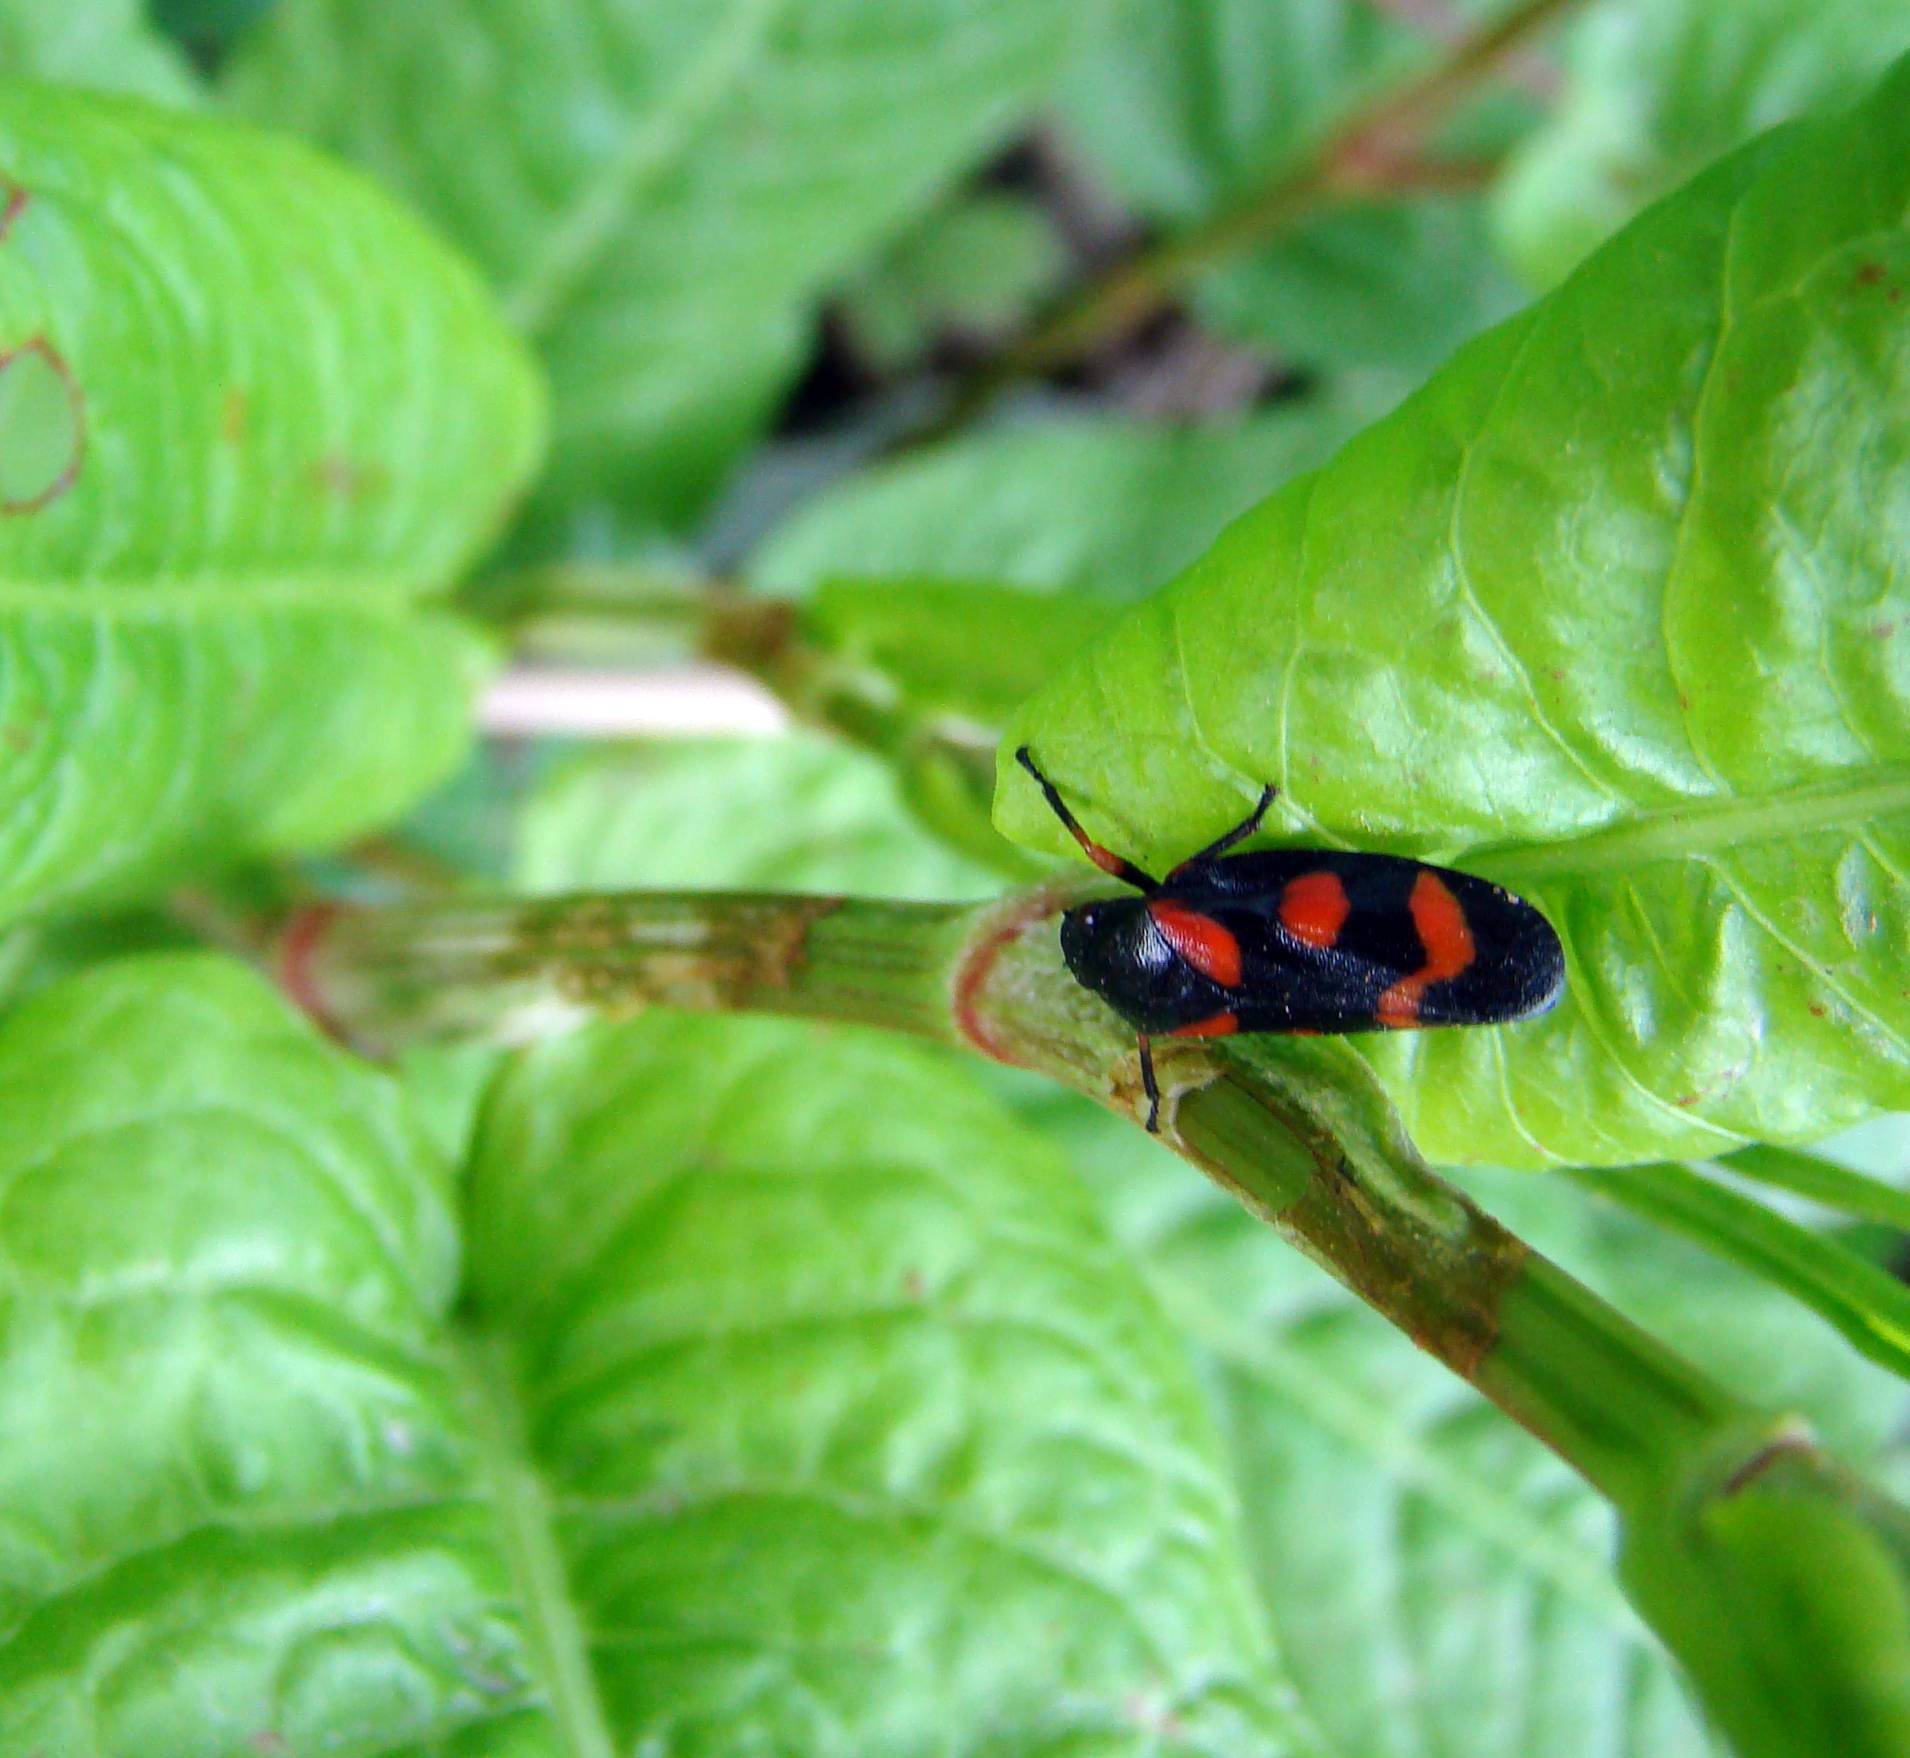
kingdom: Animalia
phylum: Arthropoda
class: Insecta
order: Hemiptera
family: Cercopidae
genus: Cercopis
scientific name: Cercopis intermedia
